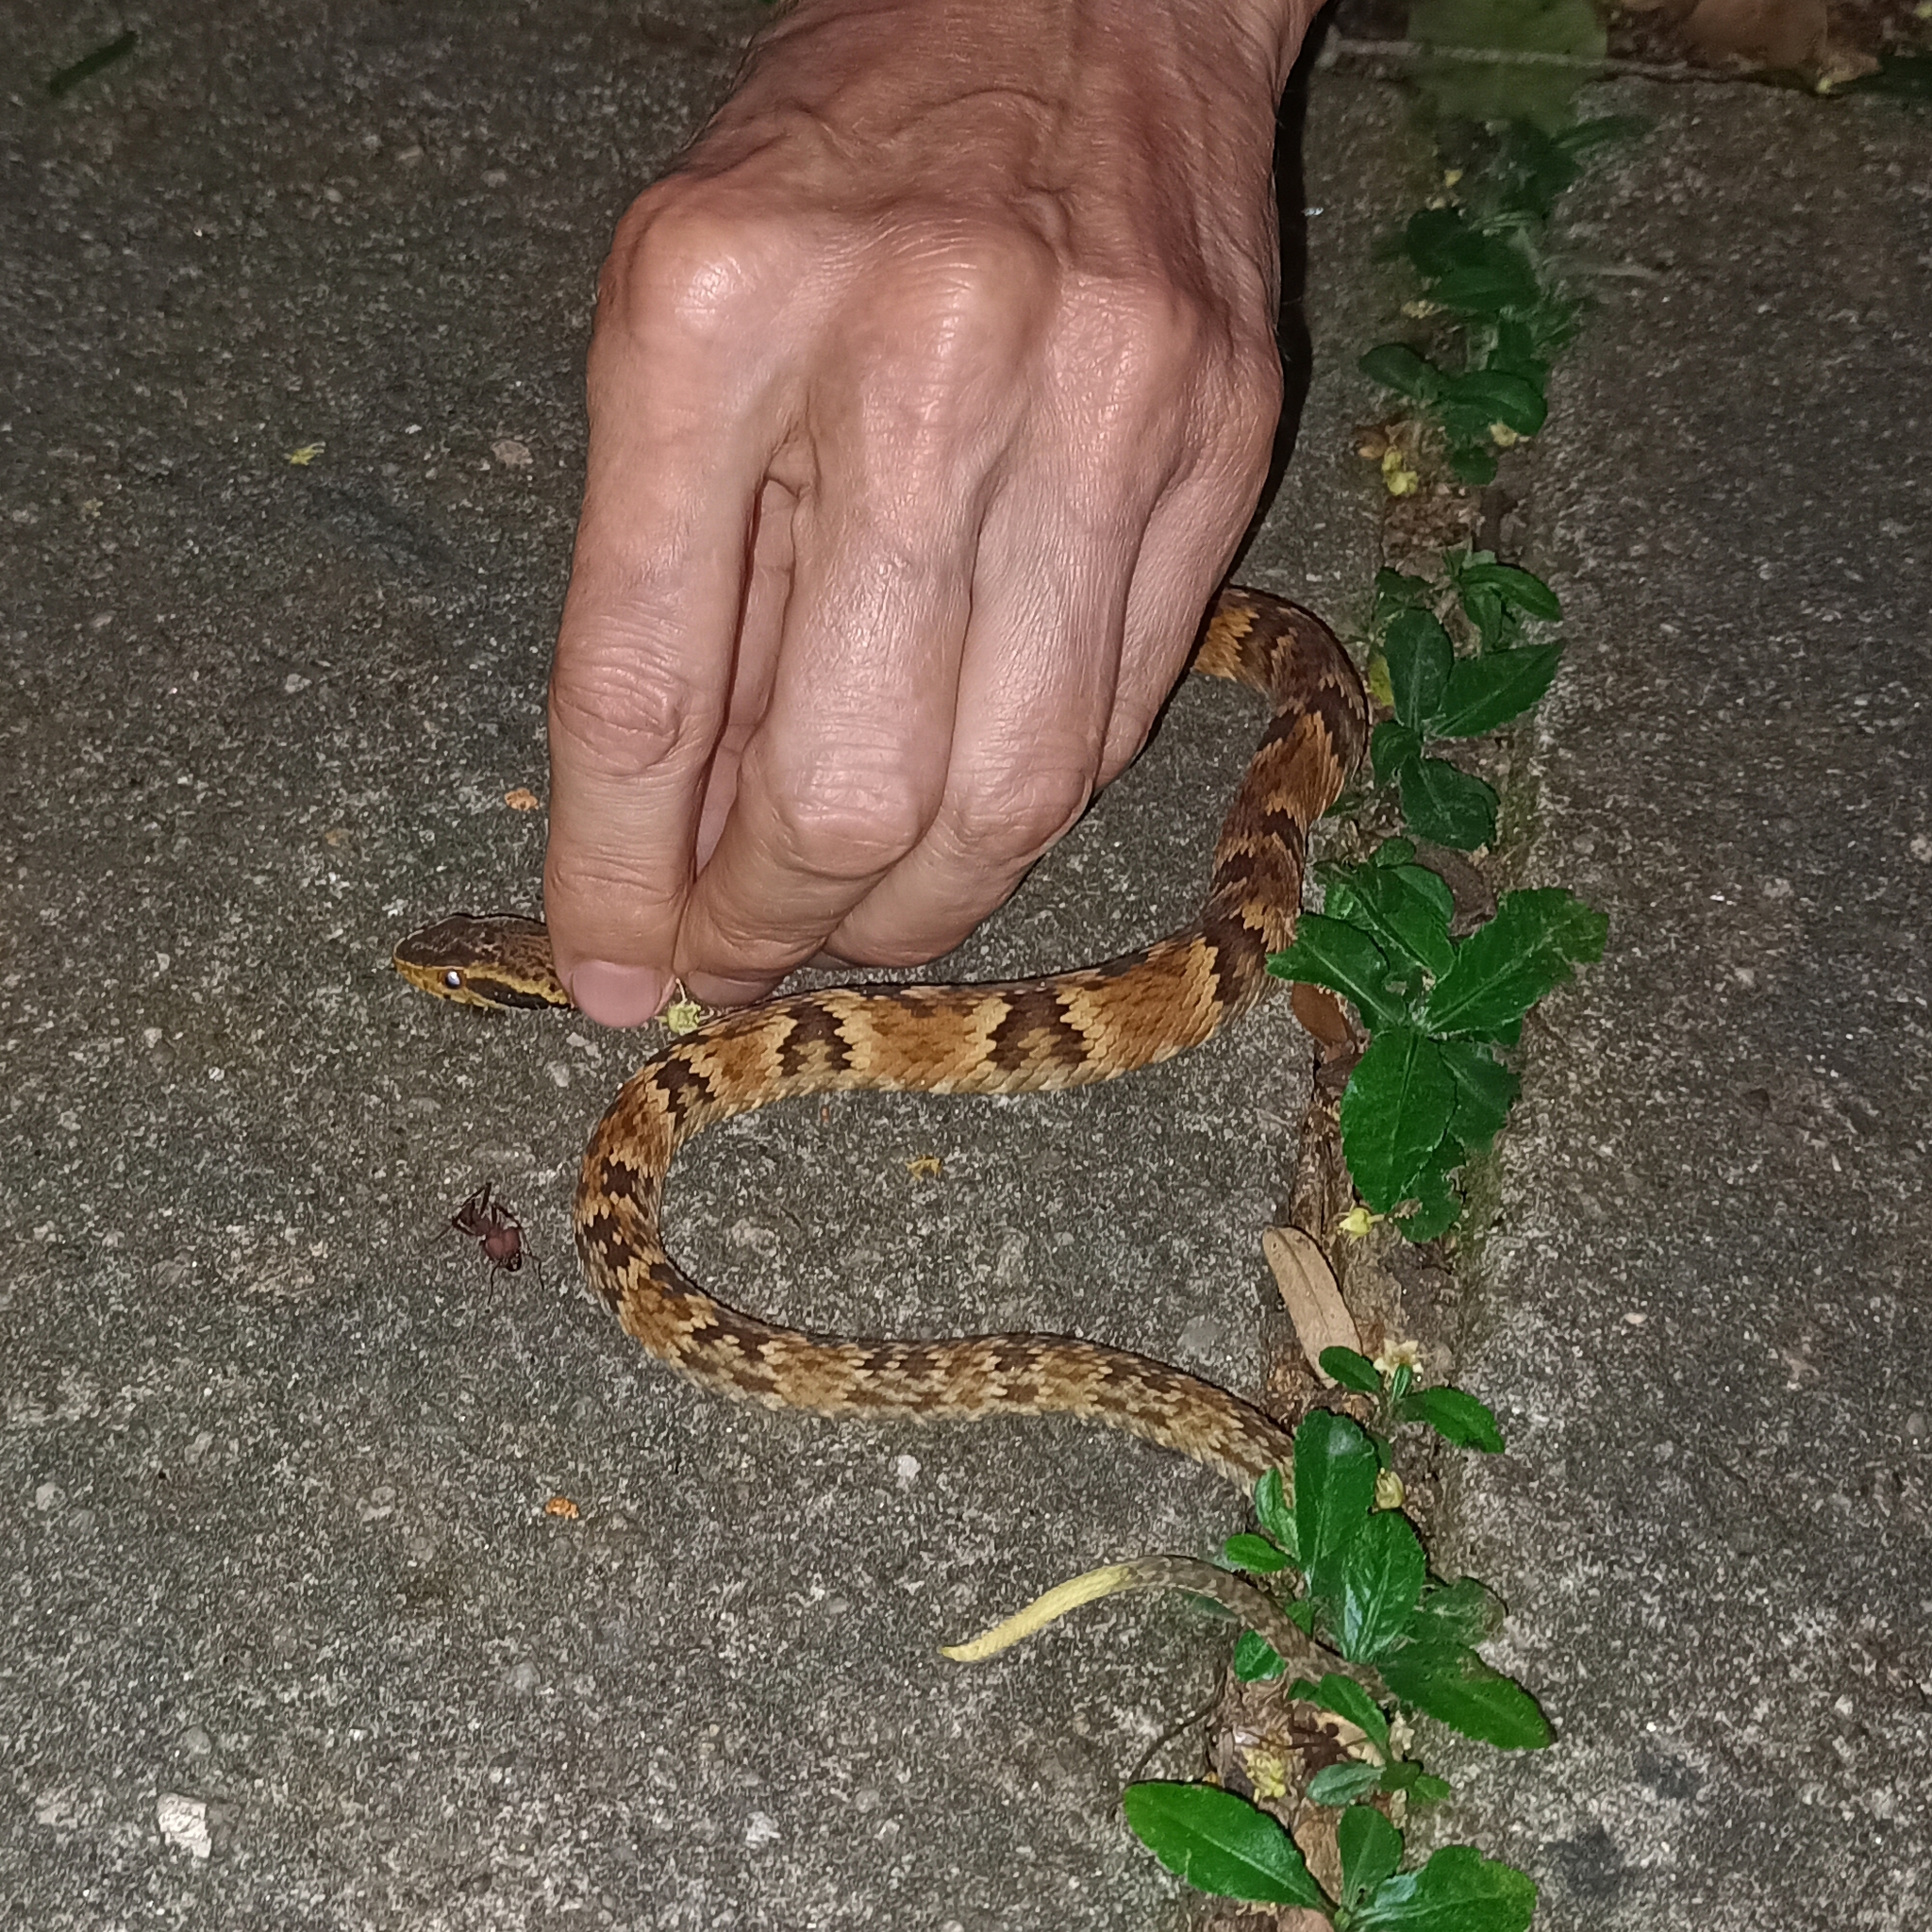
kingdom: Animalia
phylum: Chordata
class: Squamata
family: Viperidae
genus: Bothrops
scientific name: Bothrops jararaca
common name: Jararaca
